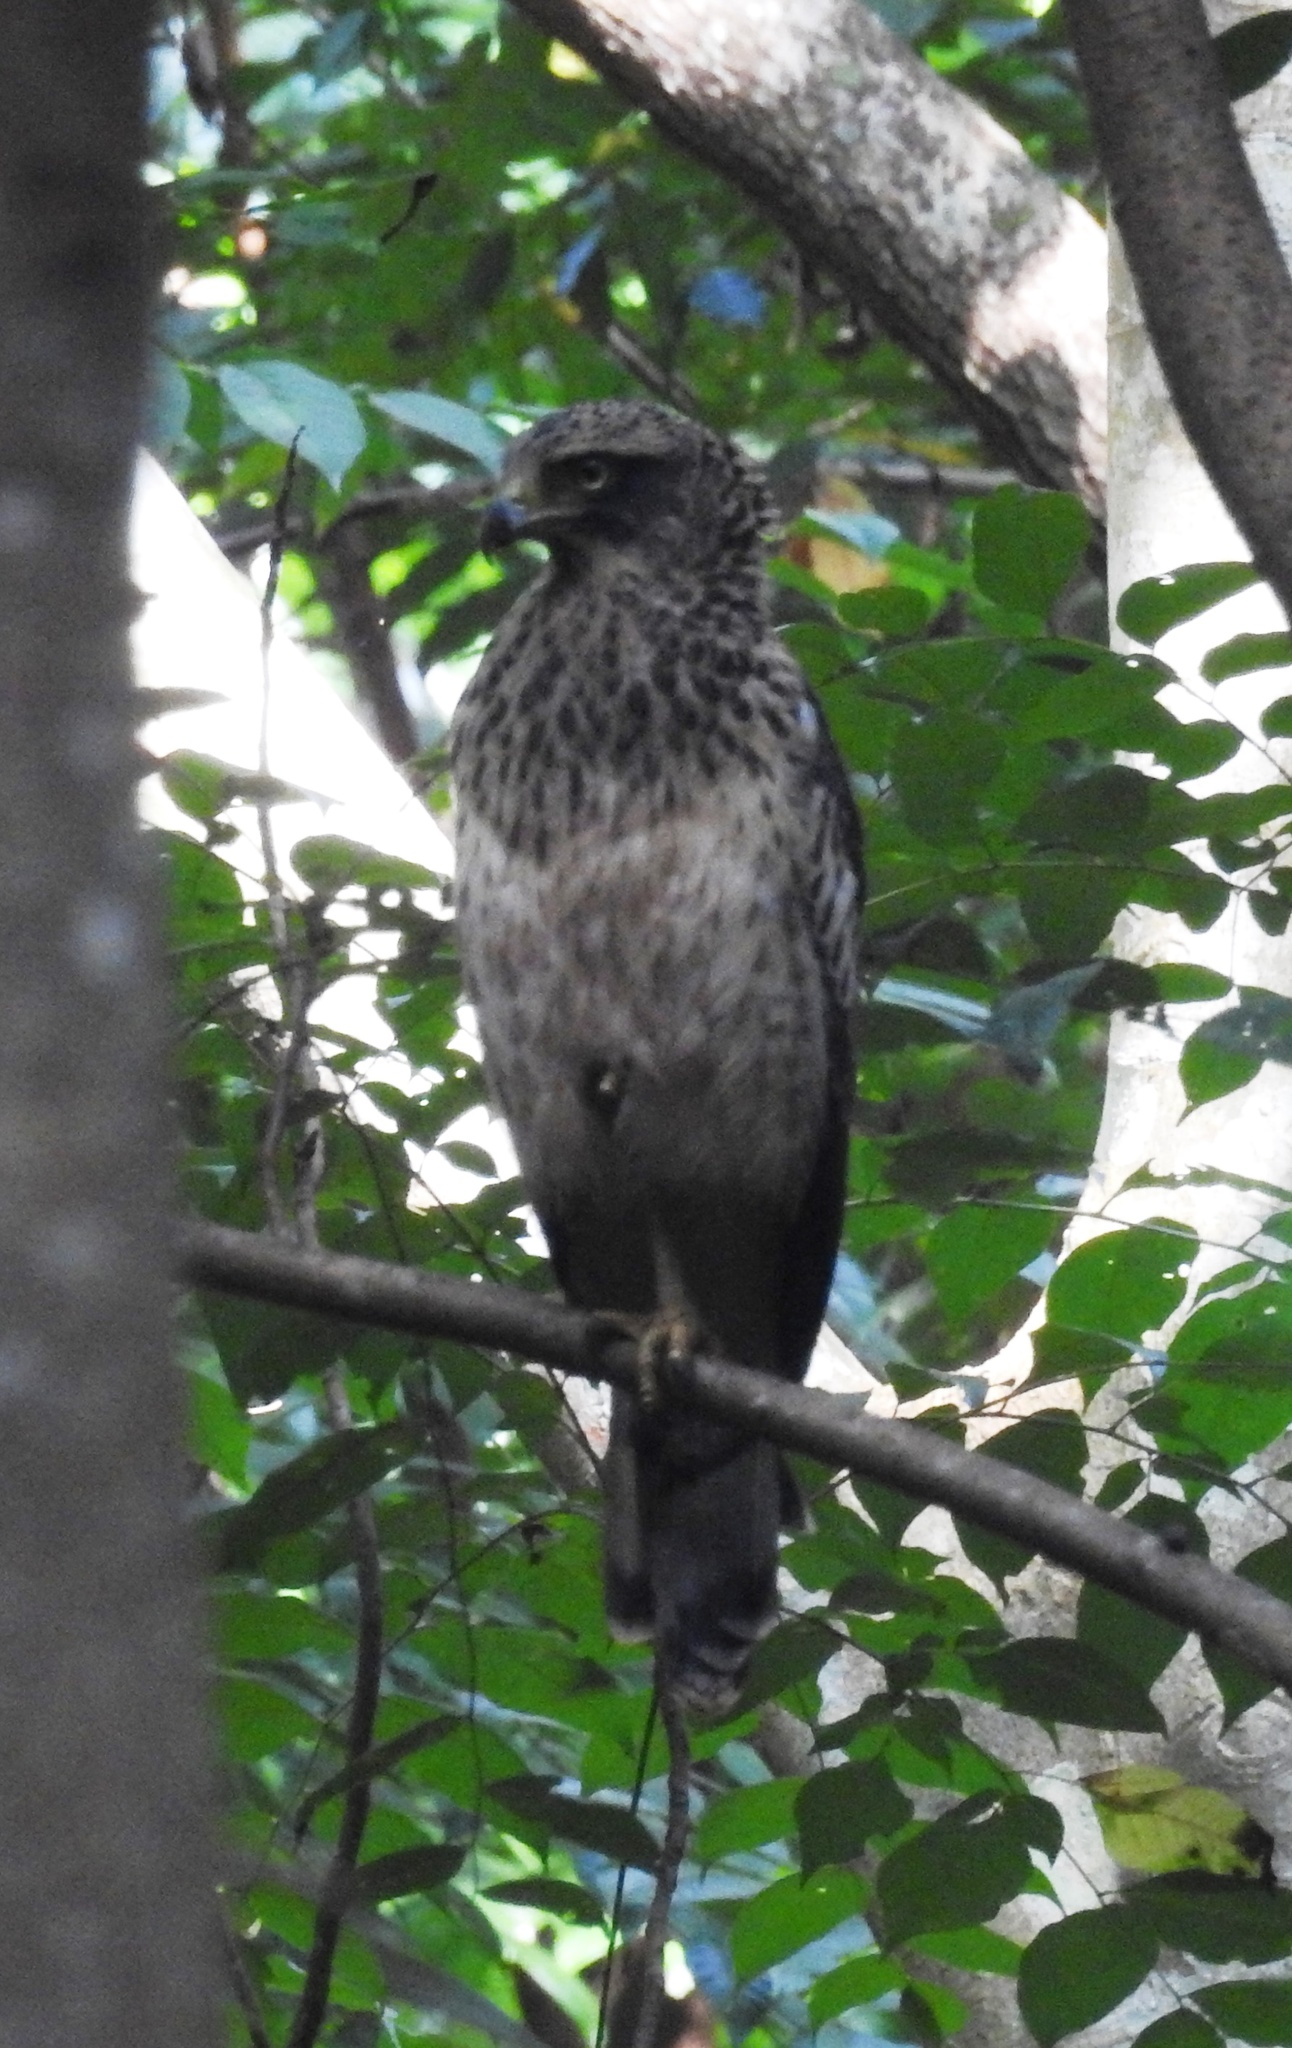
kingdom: Animalia
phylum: Chordata
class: Aves
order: Accipitriformes
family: Accipitridae
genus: Spilornis
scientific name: Spilornis cheela
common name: Crested serpent eagle
